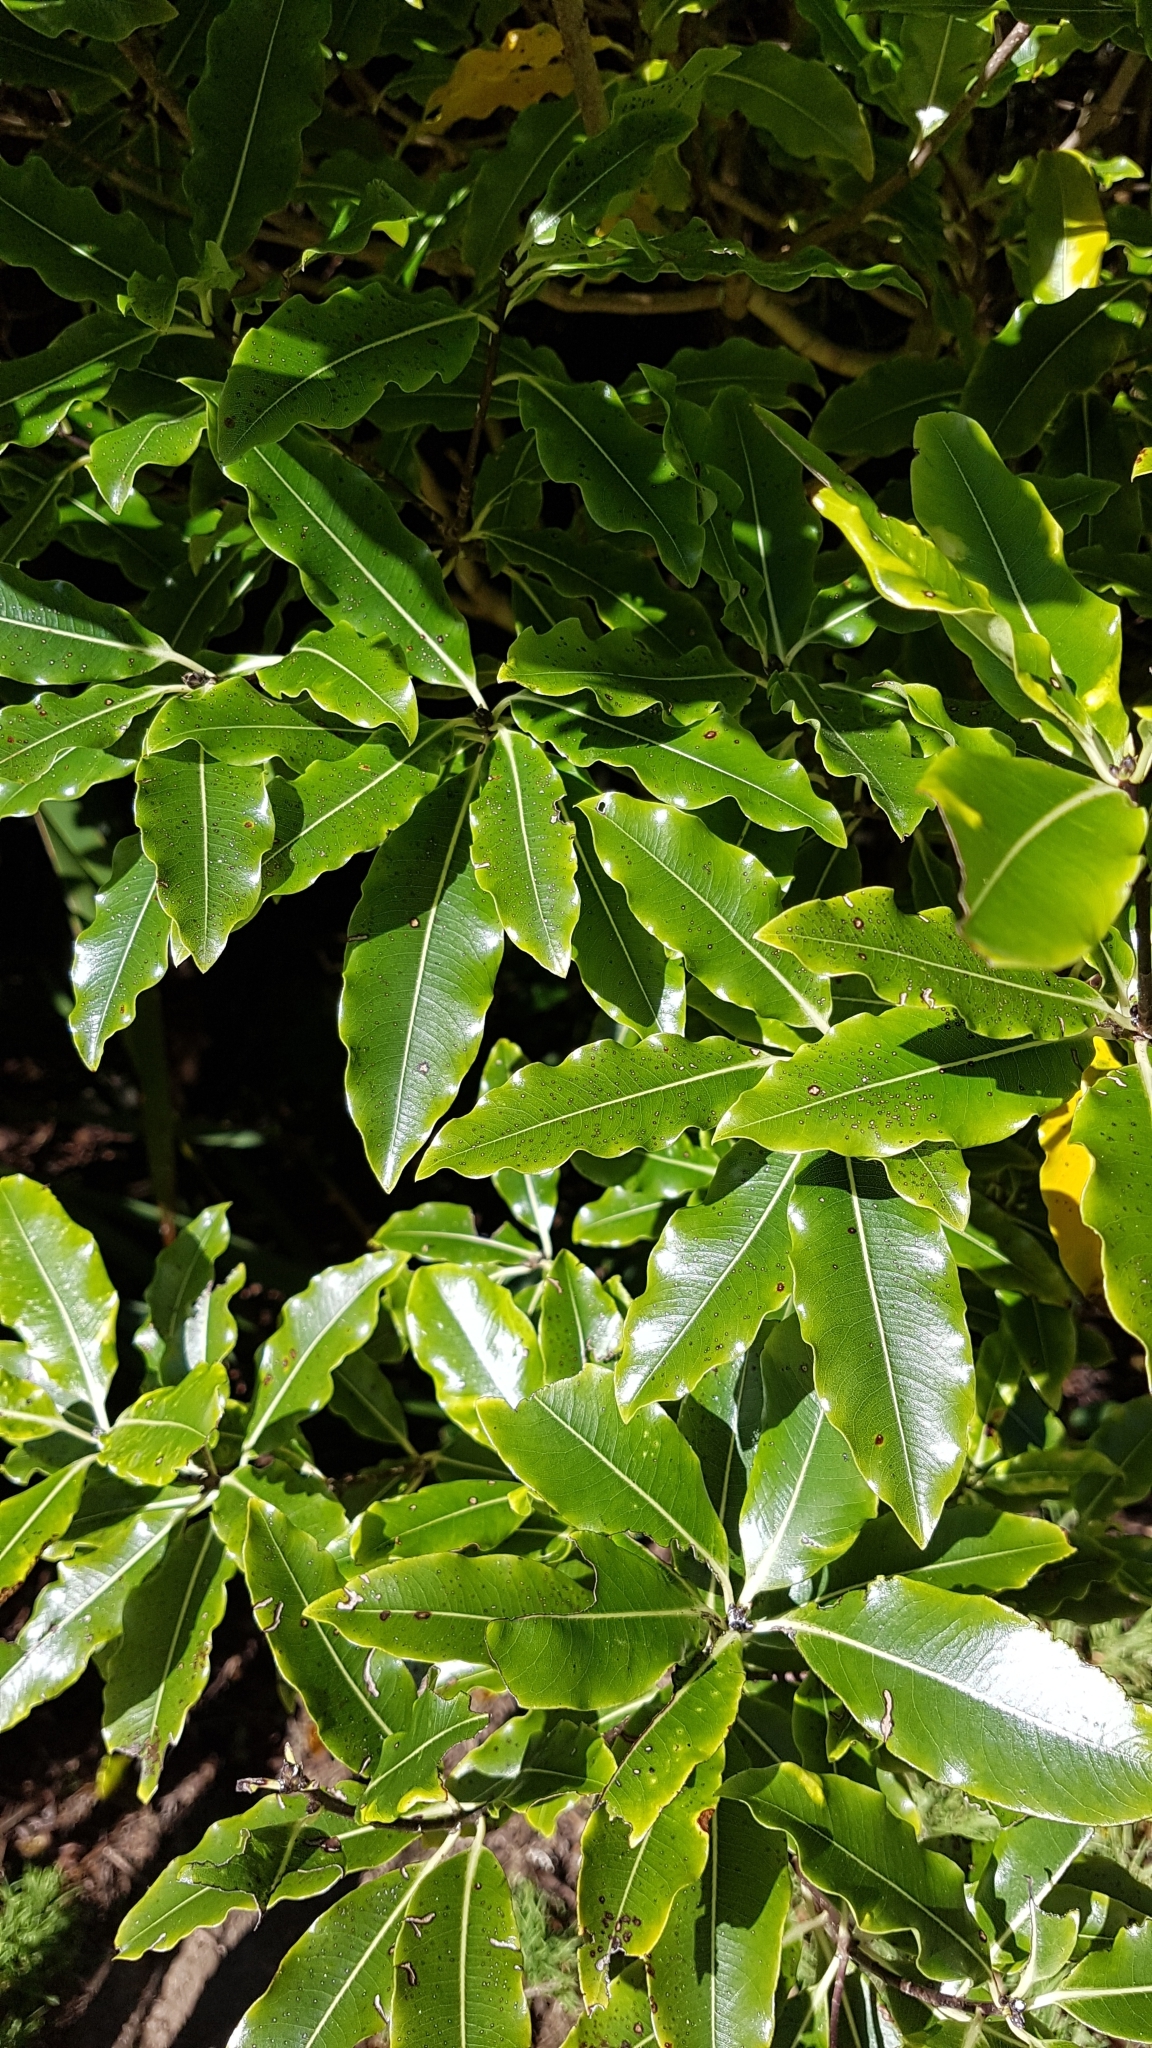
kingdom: Plantae
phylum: Tracheophyta
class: Magnoliopsida
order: Apiales
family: Pittosporaceae
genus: Pittosporum
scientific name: Pittosporum eugenioides
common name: Lemonwood
